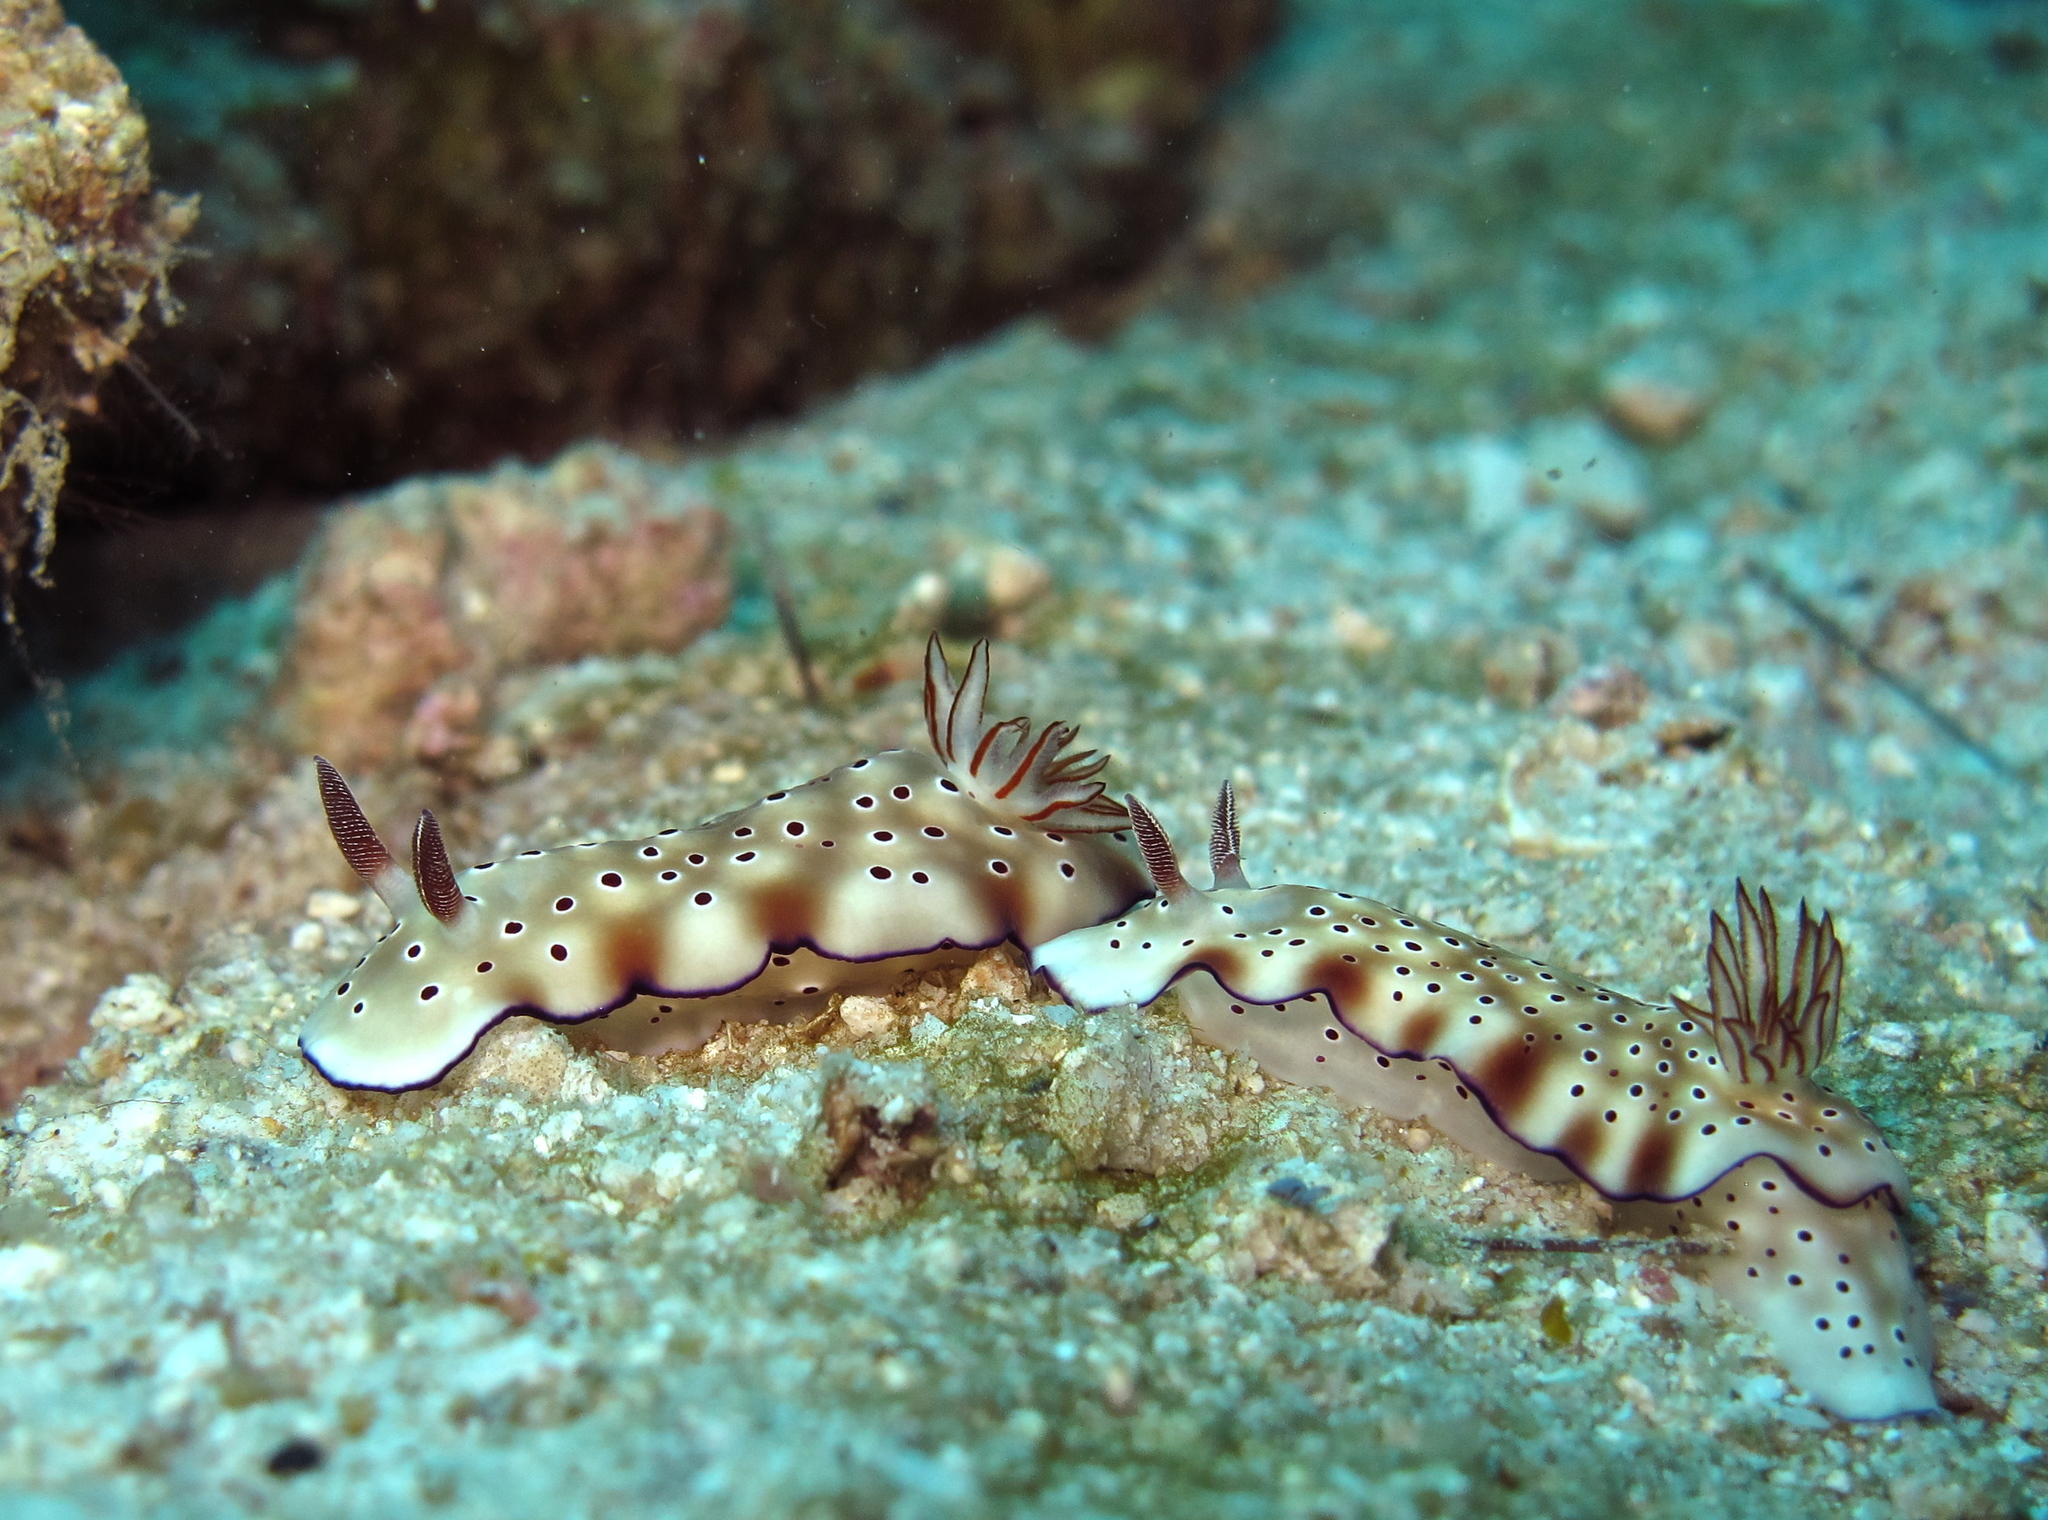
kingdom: Animalia
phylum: Mollusca
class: Gastropoda
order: Nudibranchia
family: Chromodorididae
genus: Hypselodoris
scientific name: Hypselodoris tryoni
